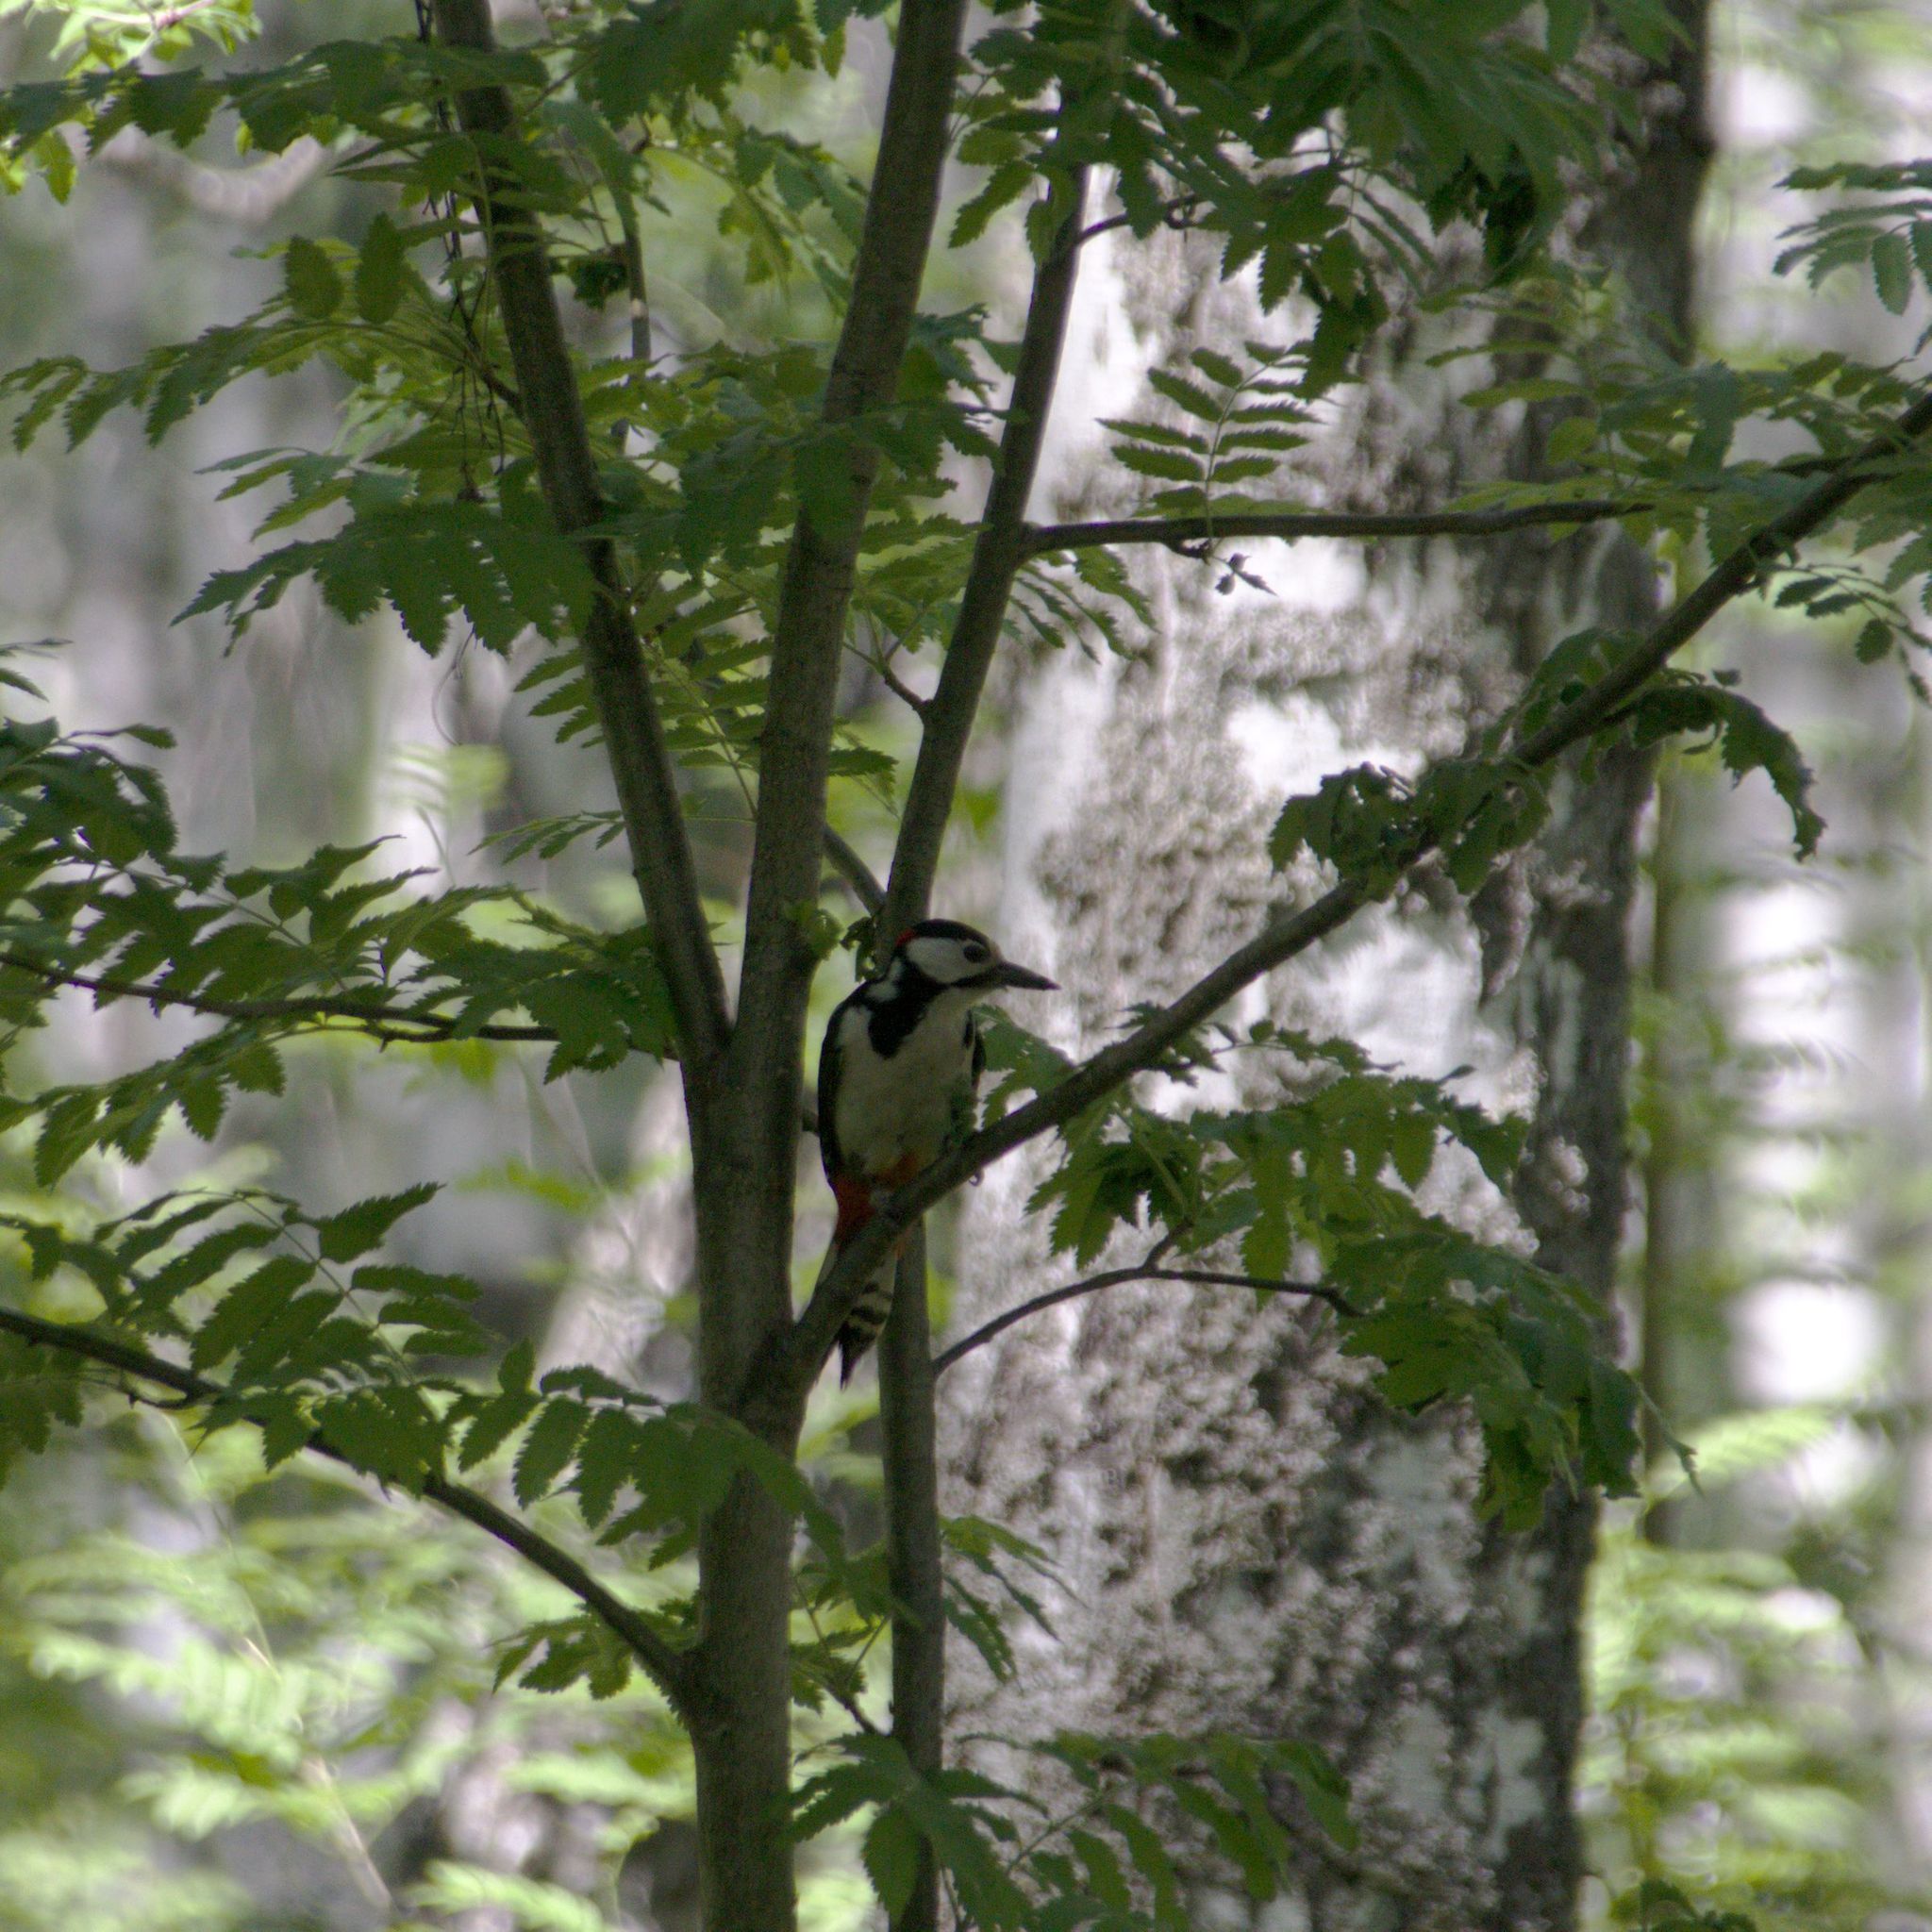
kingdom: Animalia
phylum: Chordata
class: Aves
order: Piciformes
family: Picidae
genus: Dendrocopos
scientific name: Dendrocopos major
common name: Great spotted woodpecker
